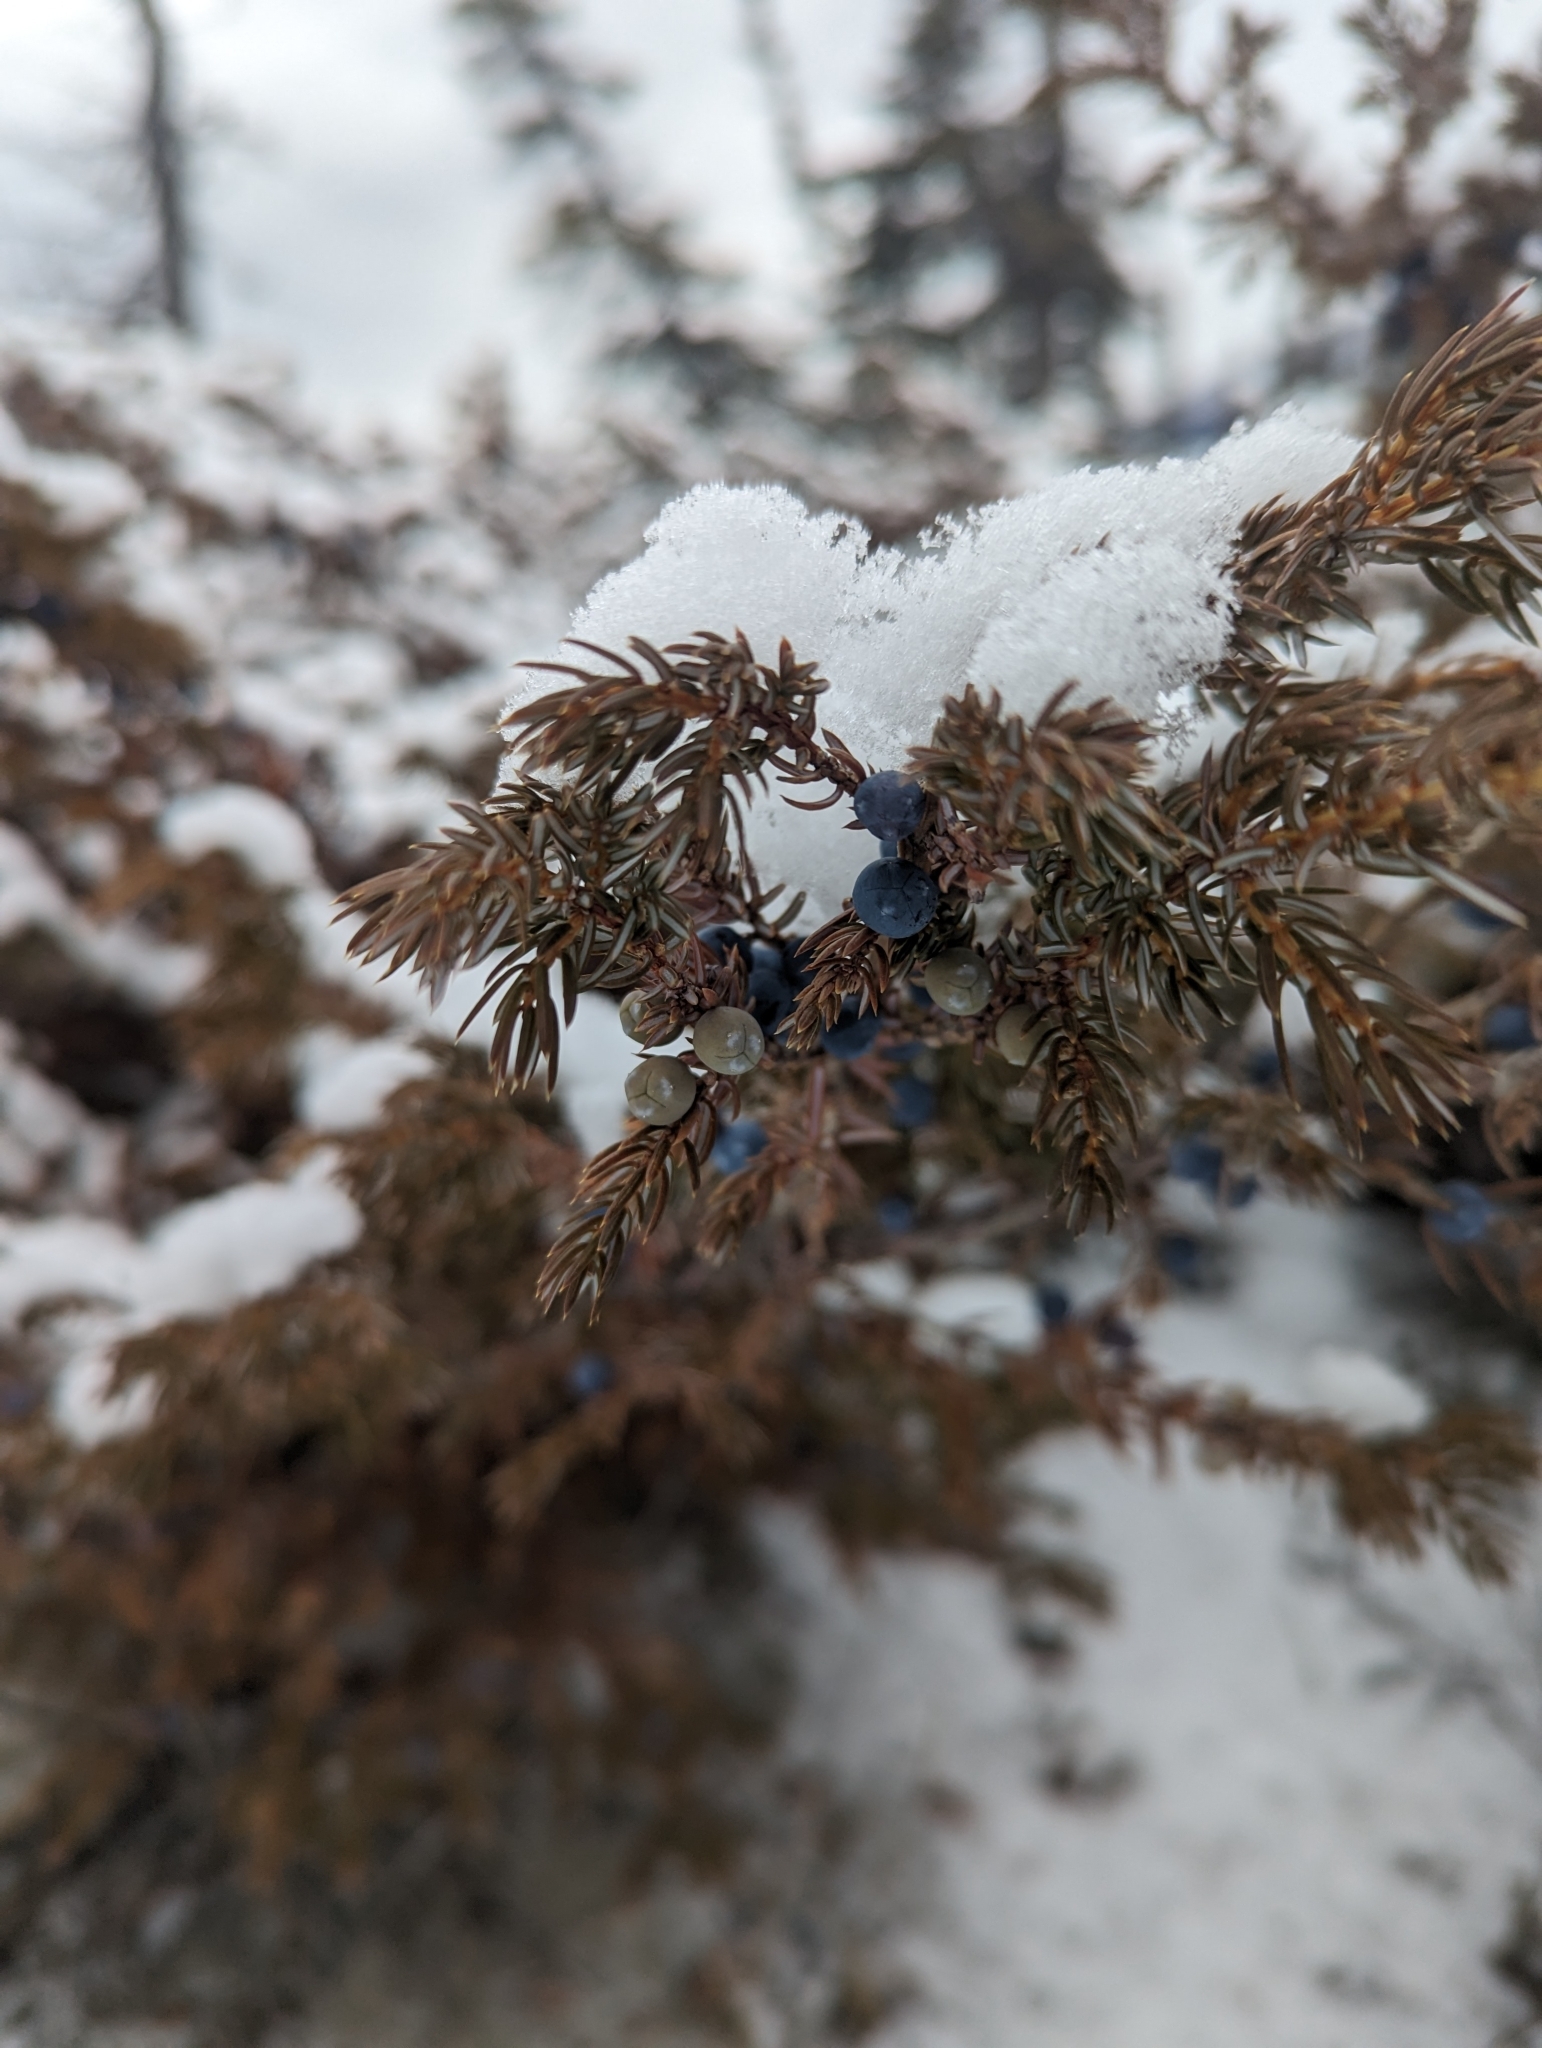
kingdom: Plantae
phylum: Tracheophyta
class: Pinopsida
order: Pinales
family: Cupressaceae
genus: Juniperus
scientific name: Juniperus communis
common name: Common juniper
